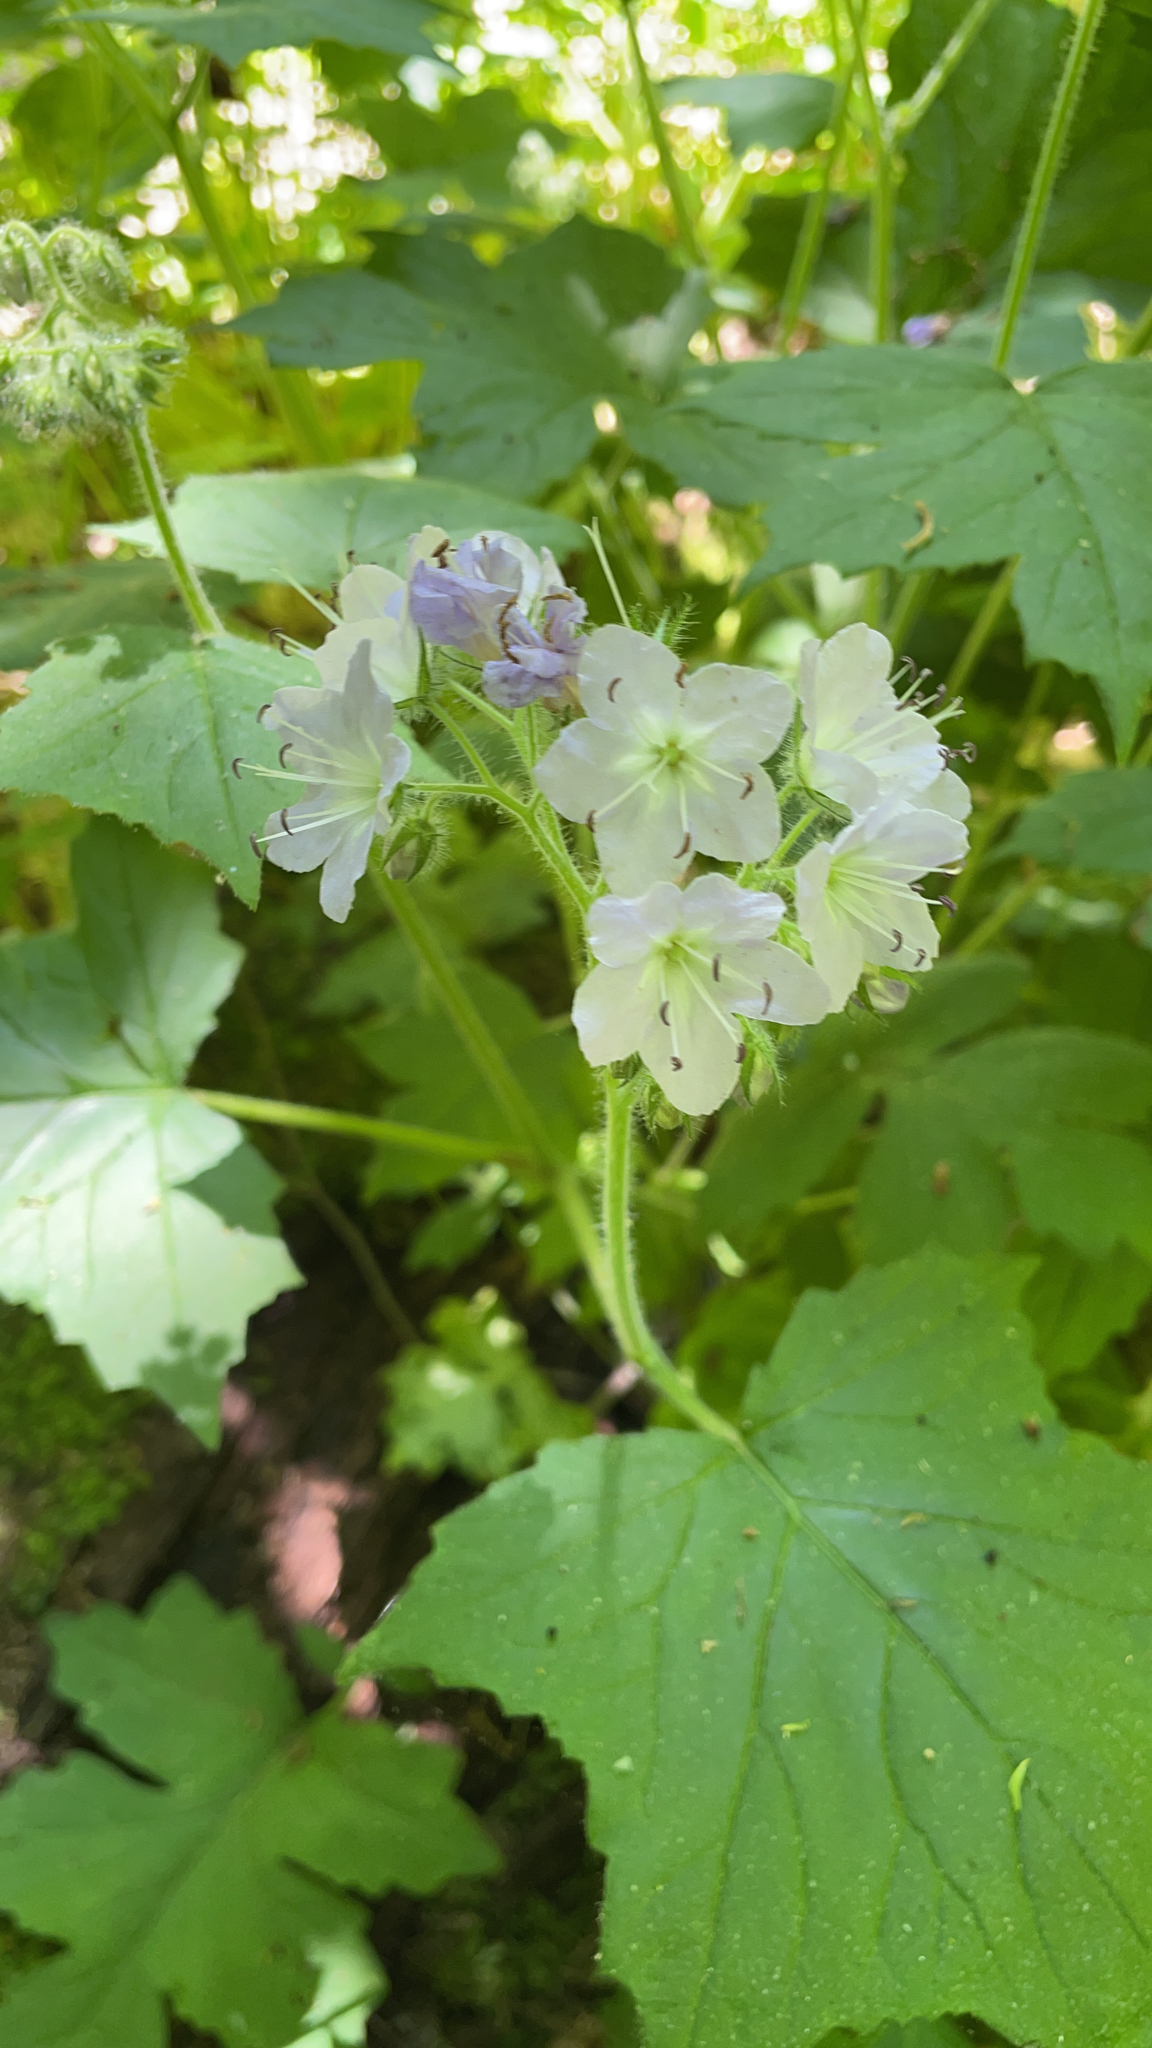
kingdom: Plantae
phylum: Tracheophyta
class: Magnoliopsida
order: Boraginales
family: Hydrophyllaceae
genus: Hydrophyllum
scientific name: Hydrophyllum appendiculatum
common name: Appendaged waterleaf
